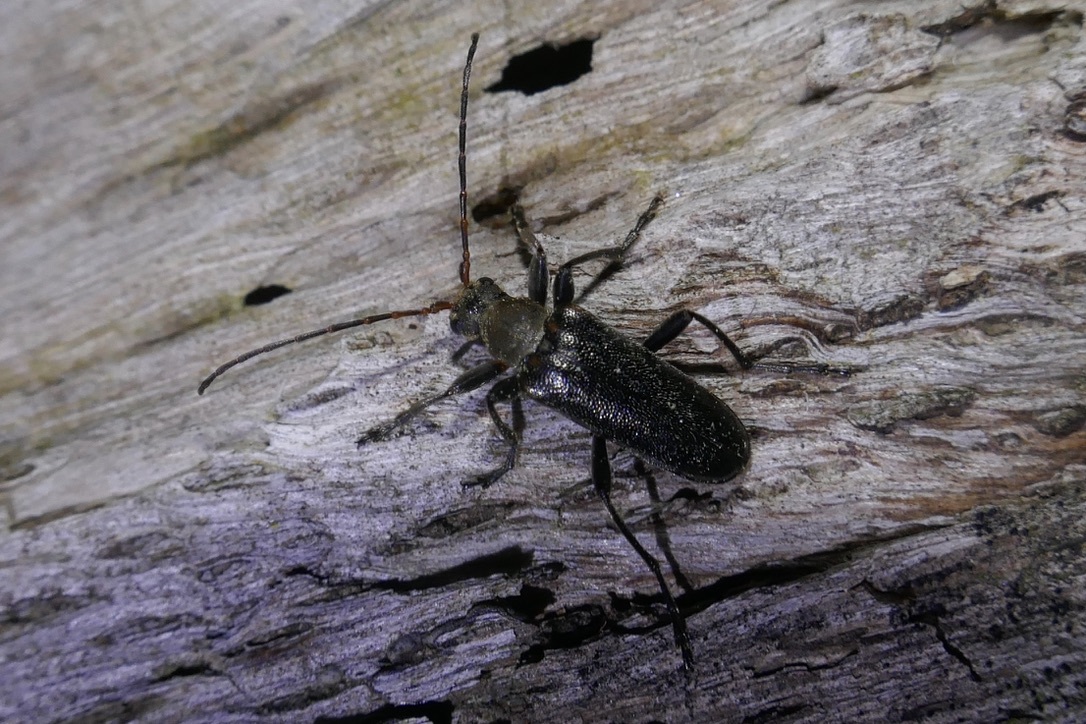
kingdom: Animalia
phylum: Arthropoda
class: Insecta
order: Coleoptera
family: Cerambycidae
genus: Cortodera
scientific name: Cortodera humeralis
